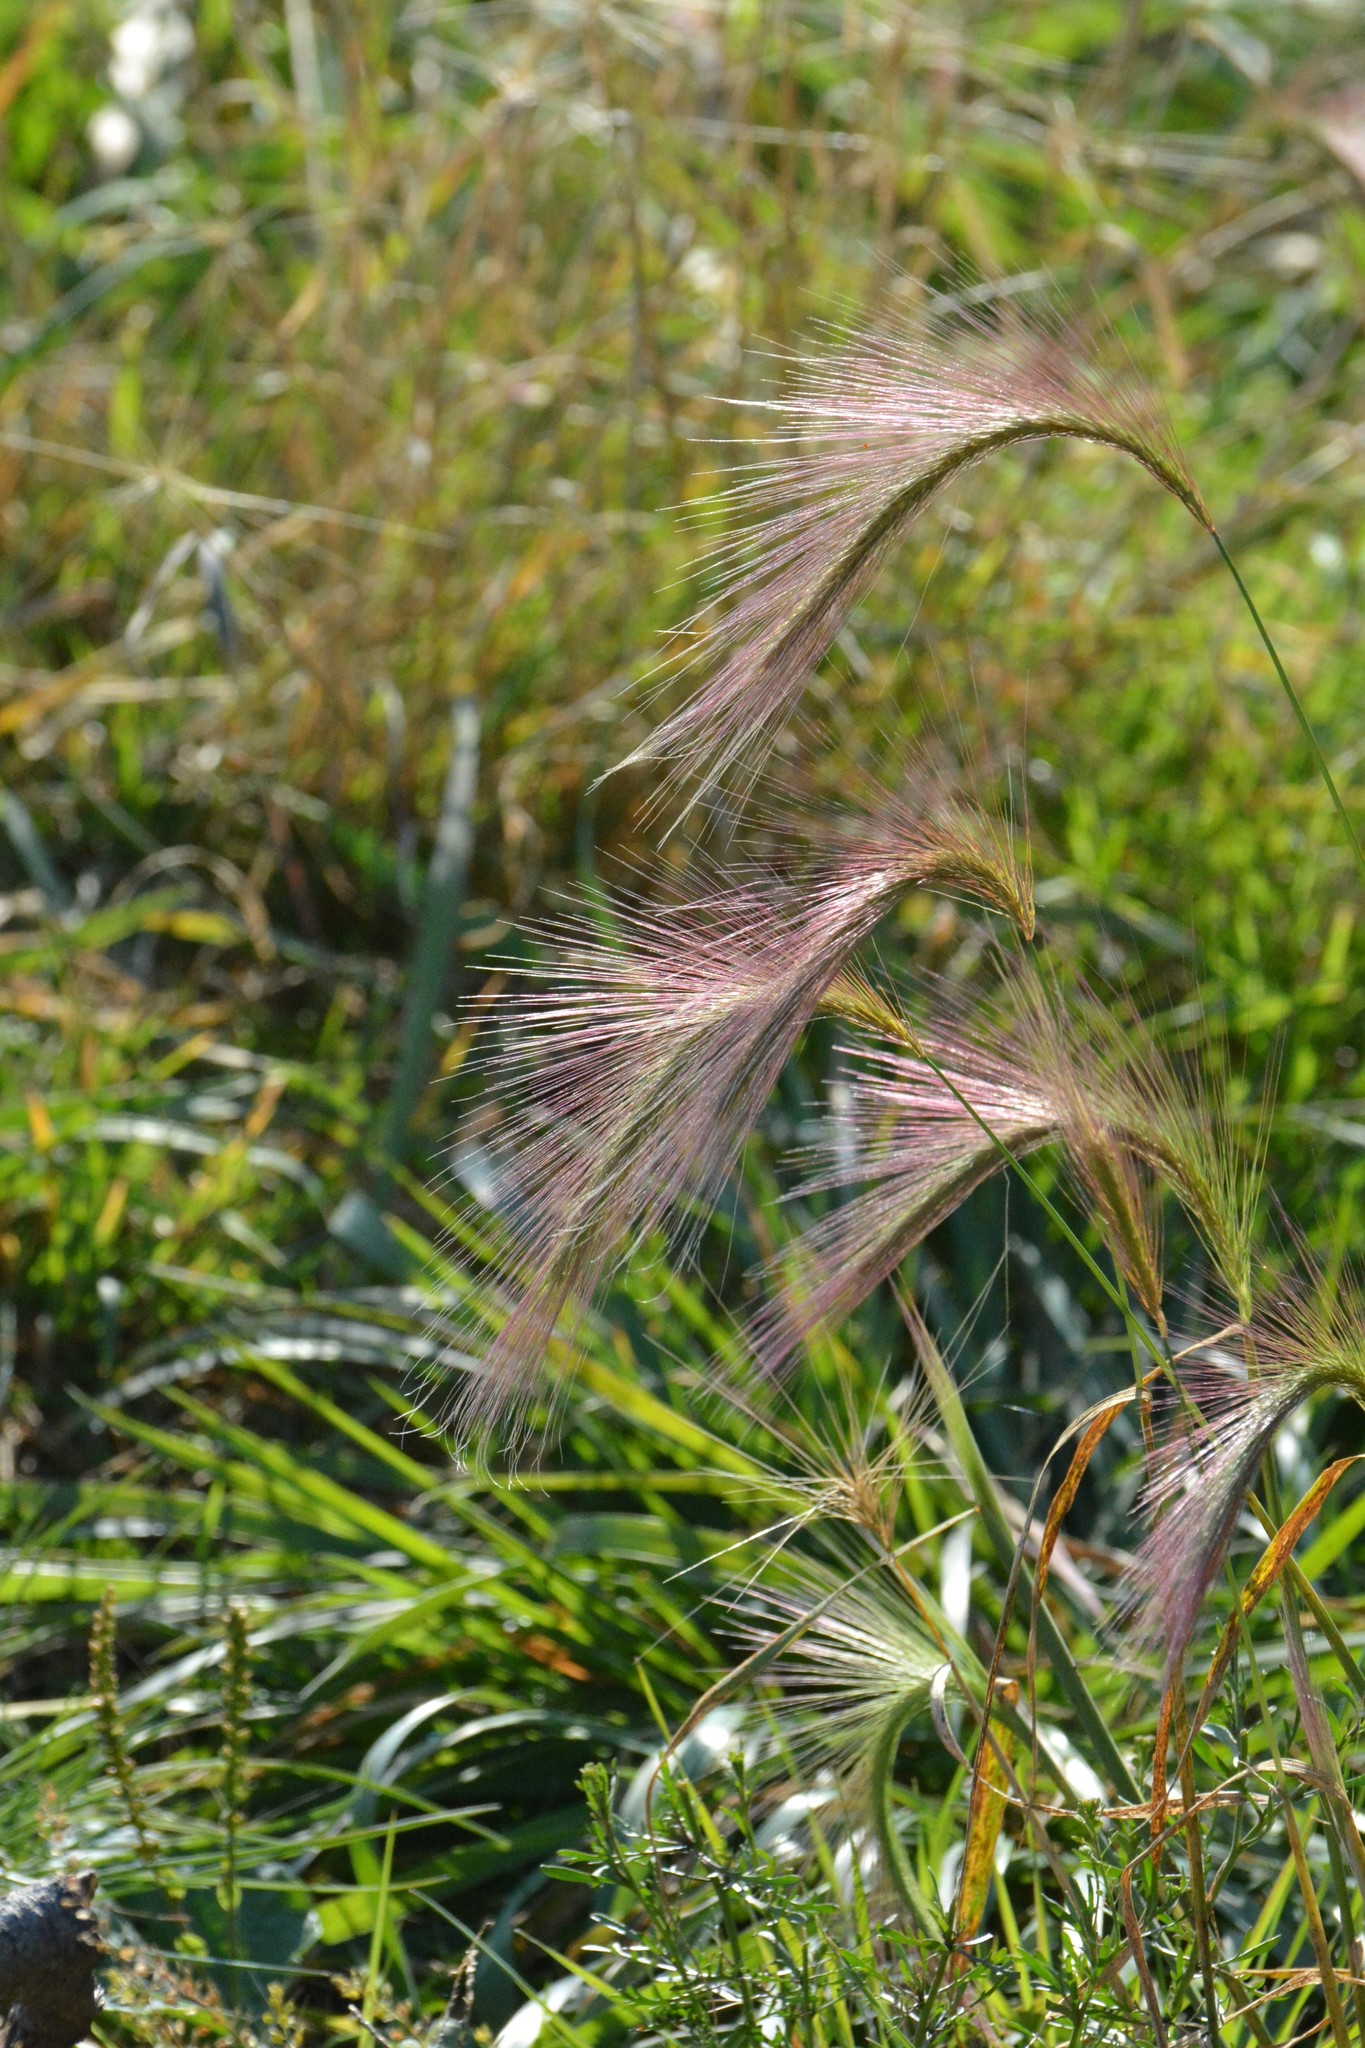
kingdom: Plantae
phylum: Tracheophyta
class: Liliopsida
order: Poales
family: Poaceae
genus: Hordeum
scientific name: Hordeum jubatum
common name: Foxtail barley
